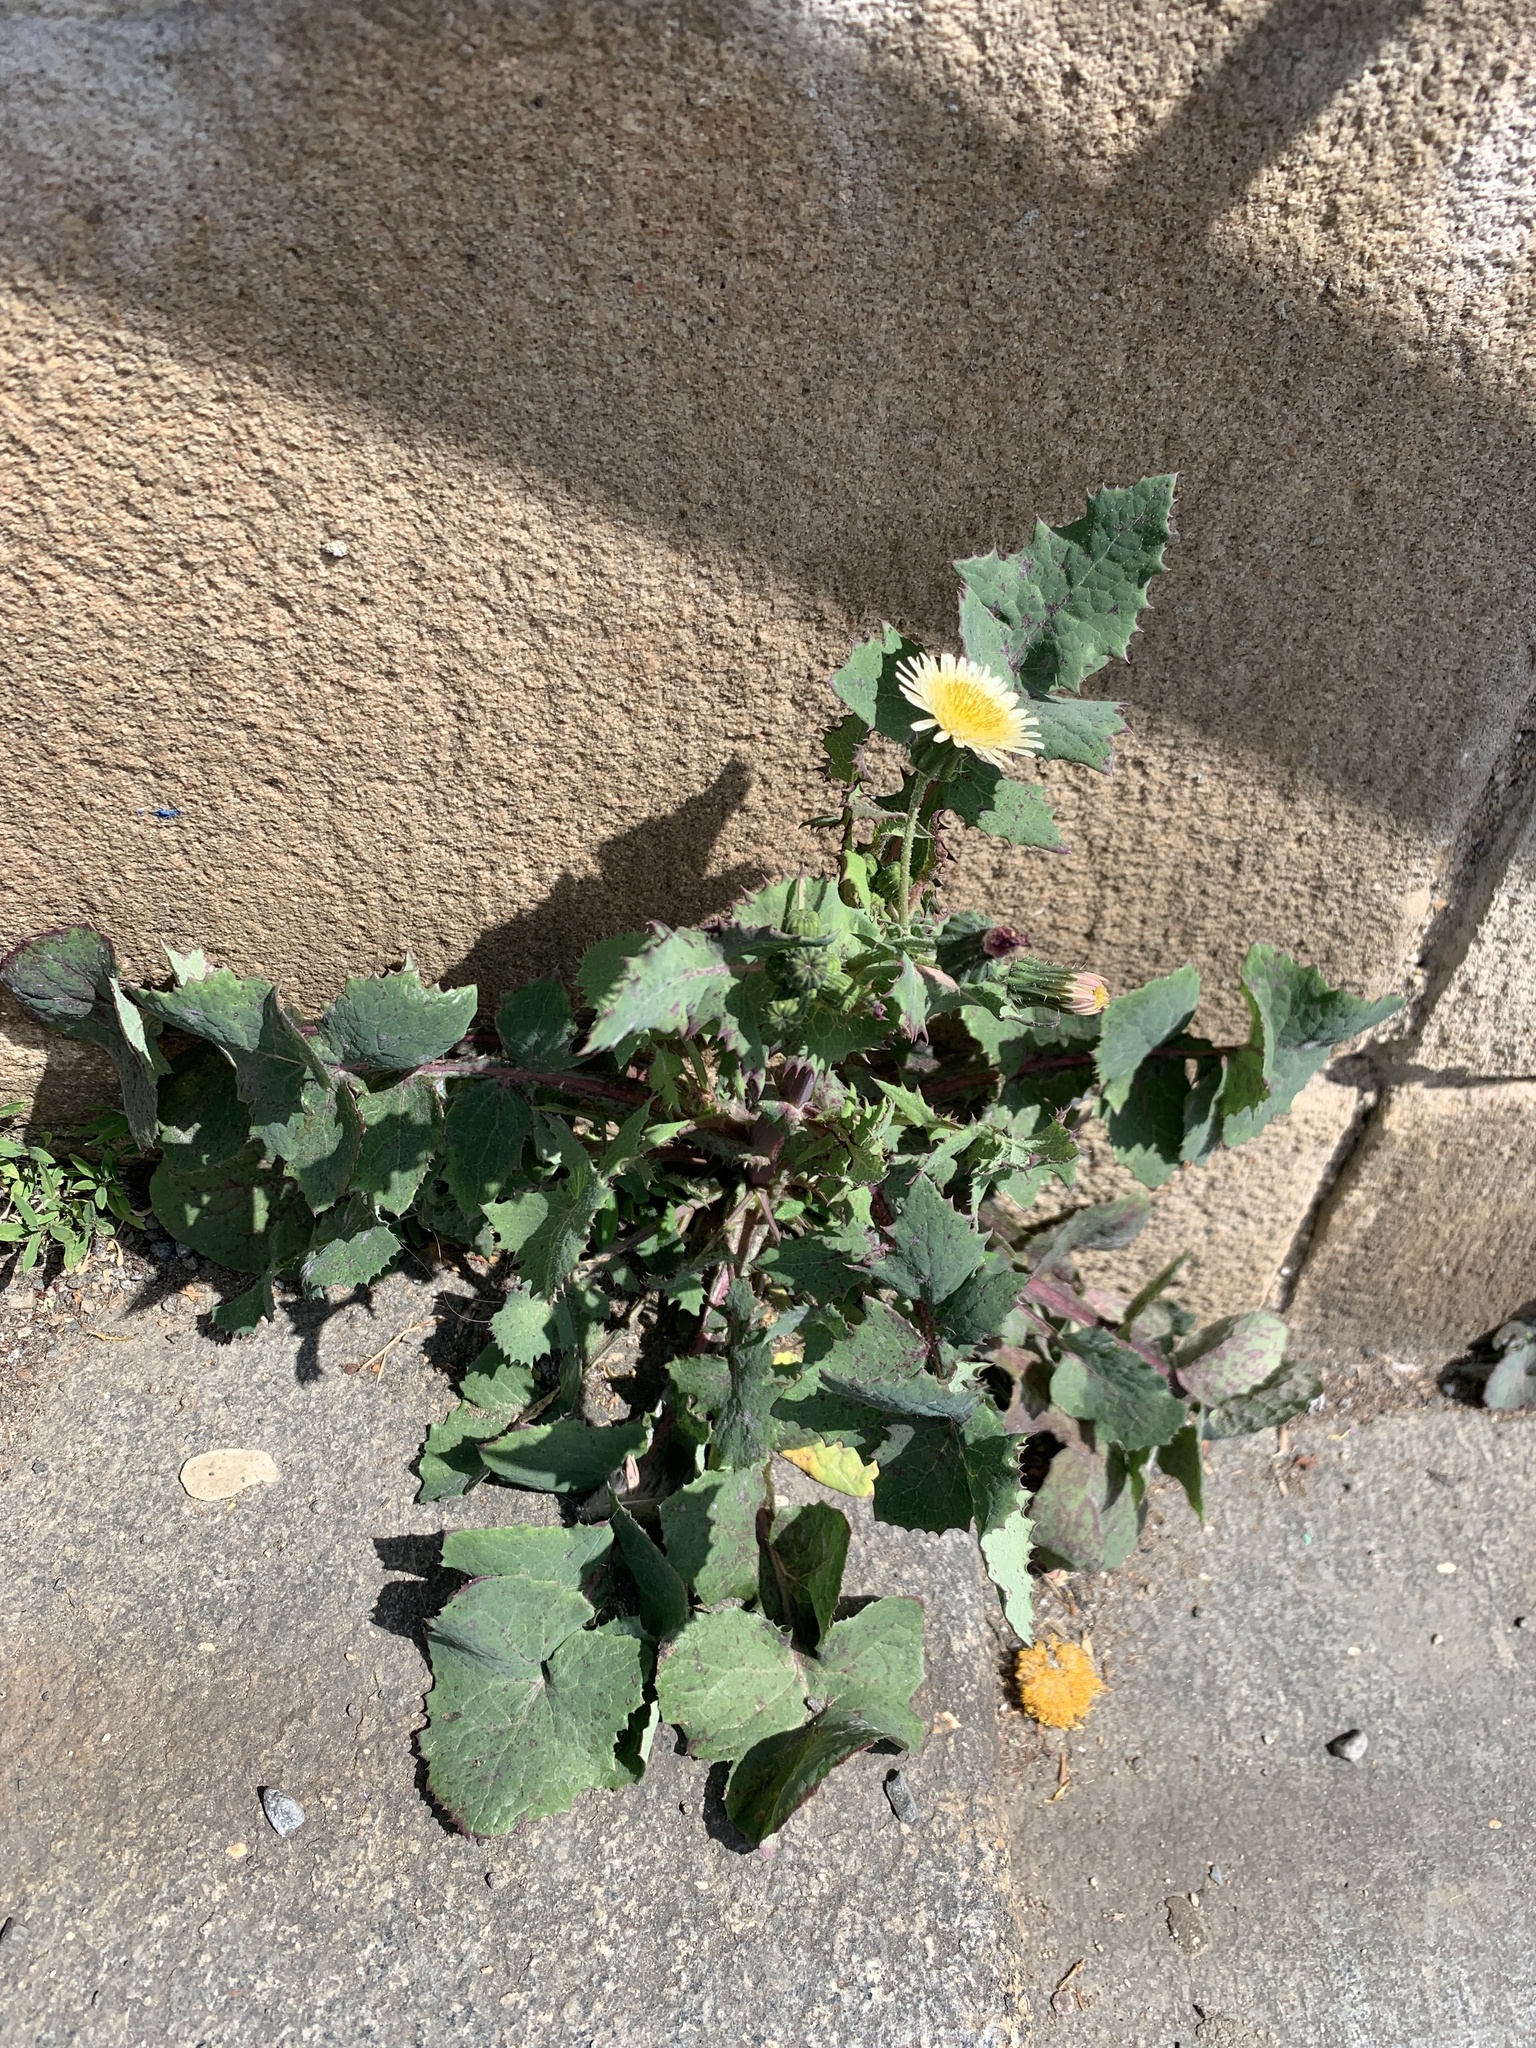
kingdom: Plantae
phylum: Tracheophyta
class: Magnoliopsida
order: Asterales
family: Asteraceae
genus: Sonchus
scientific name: Sonchus oleraceus
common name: Common sowthistle
